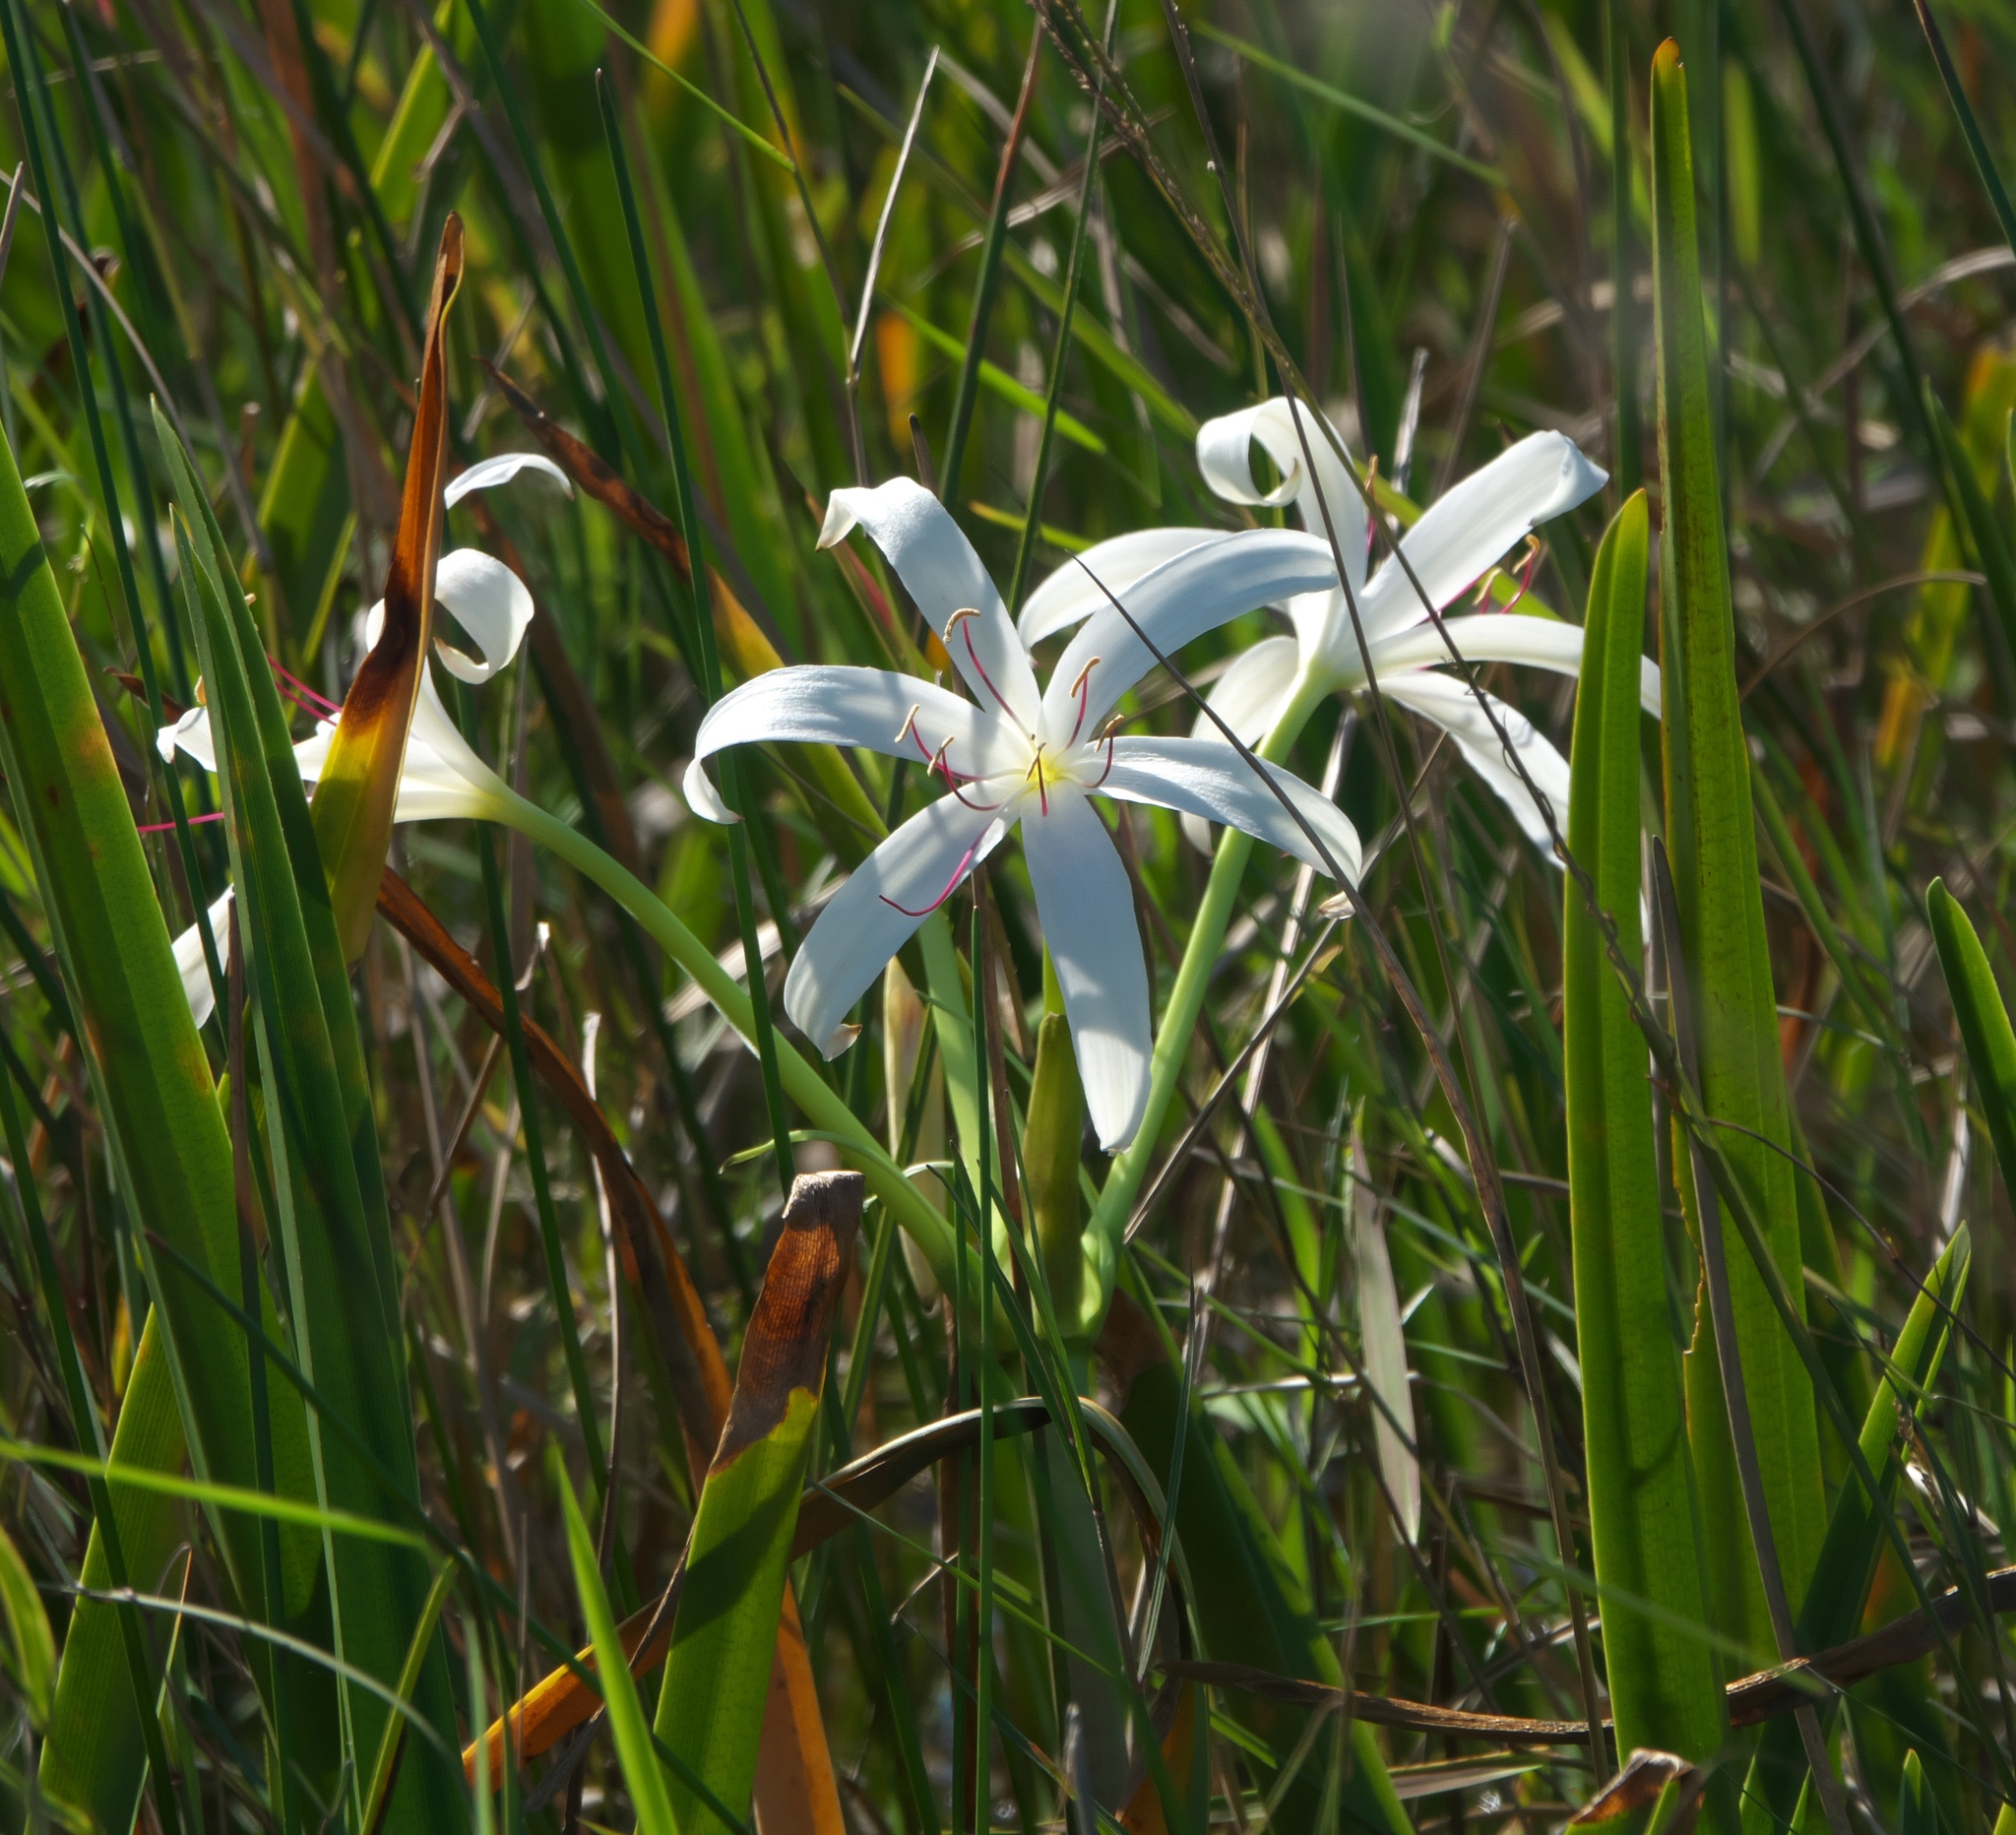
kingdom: Plantae
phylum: Tracheophyta
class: Liliopsida
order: Asparagales
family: Amaryllidaceae
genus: Crinum
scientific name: Crinum americanum
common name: Florida swamp-lily
